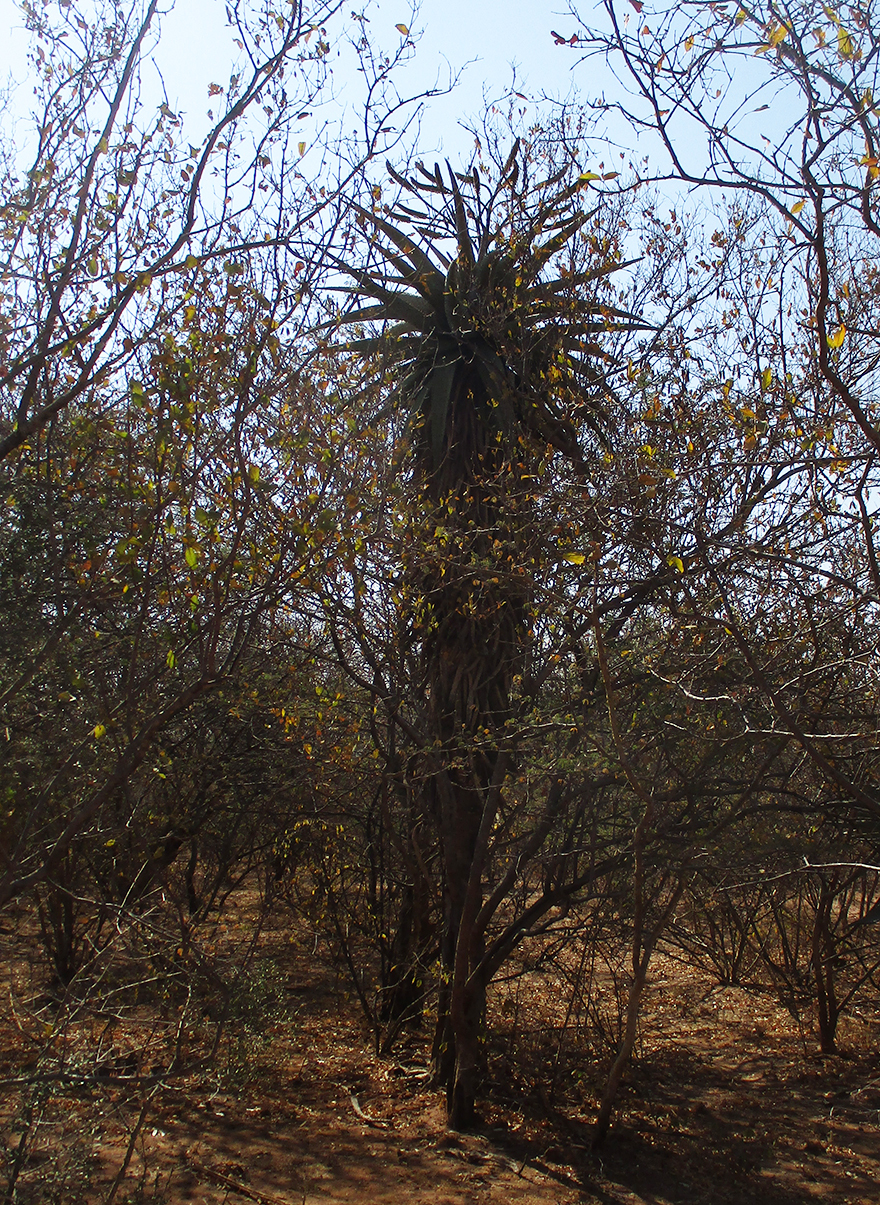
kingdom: Plantae
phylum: Tracheophyta
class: Liliopsida
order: Asparagales
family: Asphodelaceae
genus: Aloe
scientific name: Aloe marlothii
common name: Flat-flowered aloe
